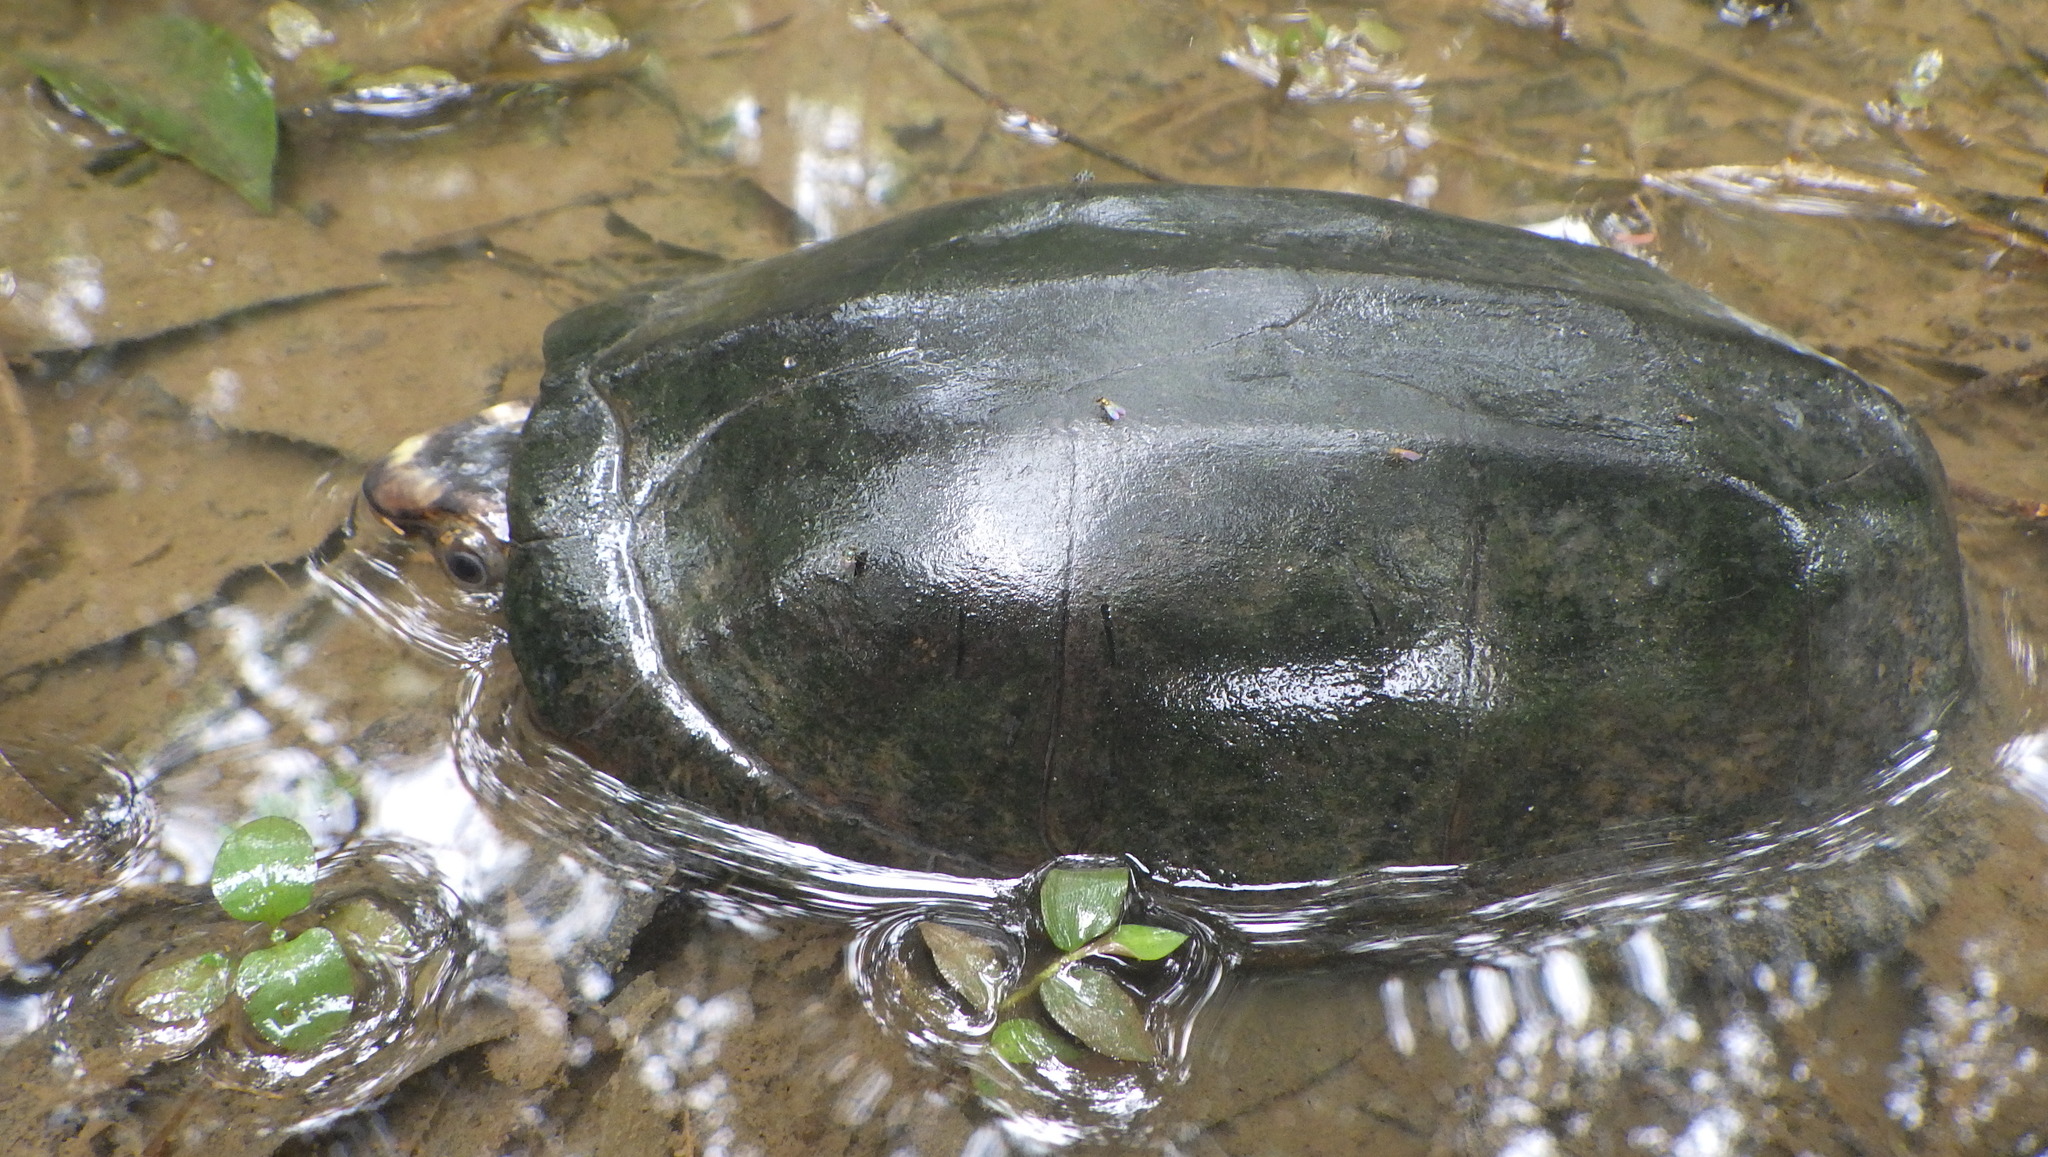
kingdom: Animalia
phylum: Chordata
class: Testudines
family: Kinosternidae
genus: Kinosternon
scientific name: Kinosternon scorpioides
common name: Scorpion mud turtle
